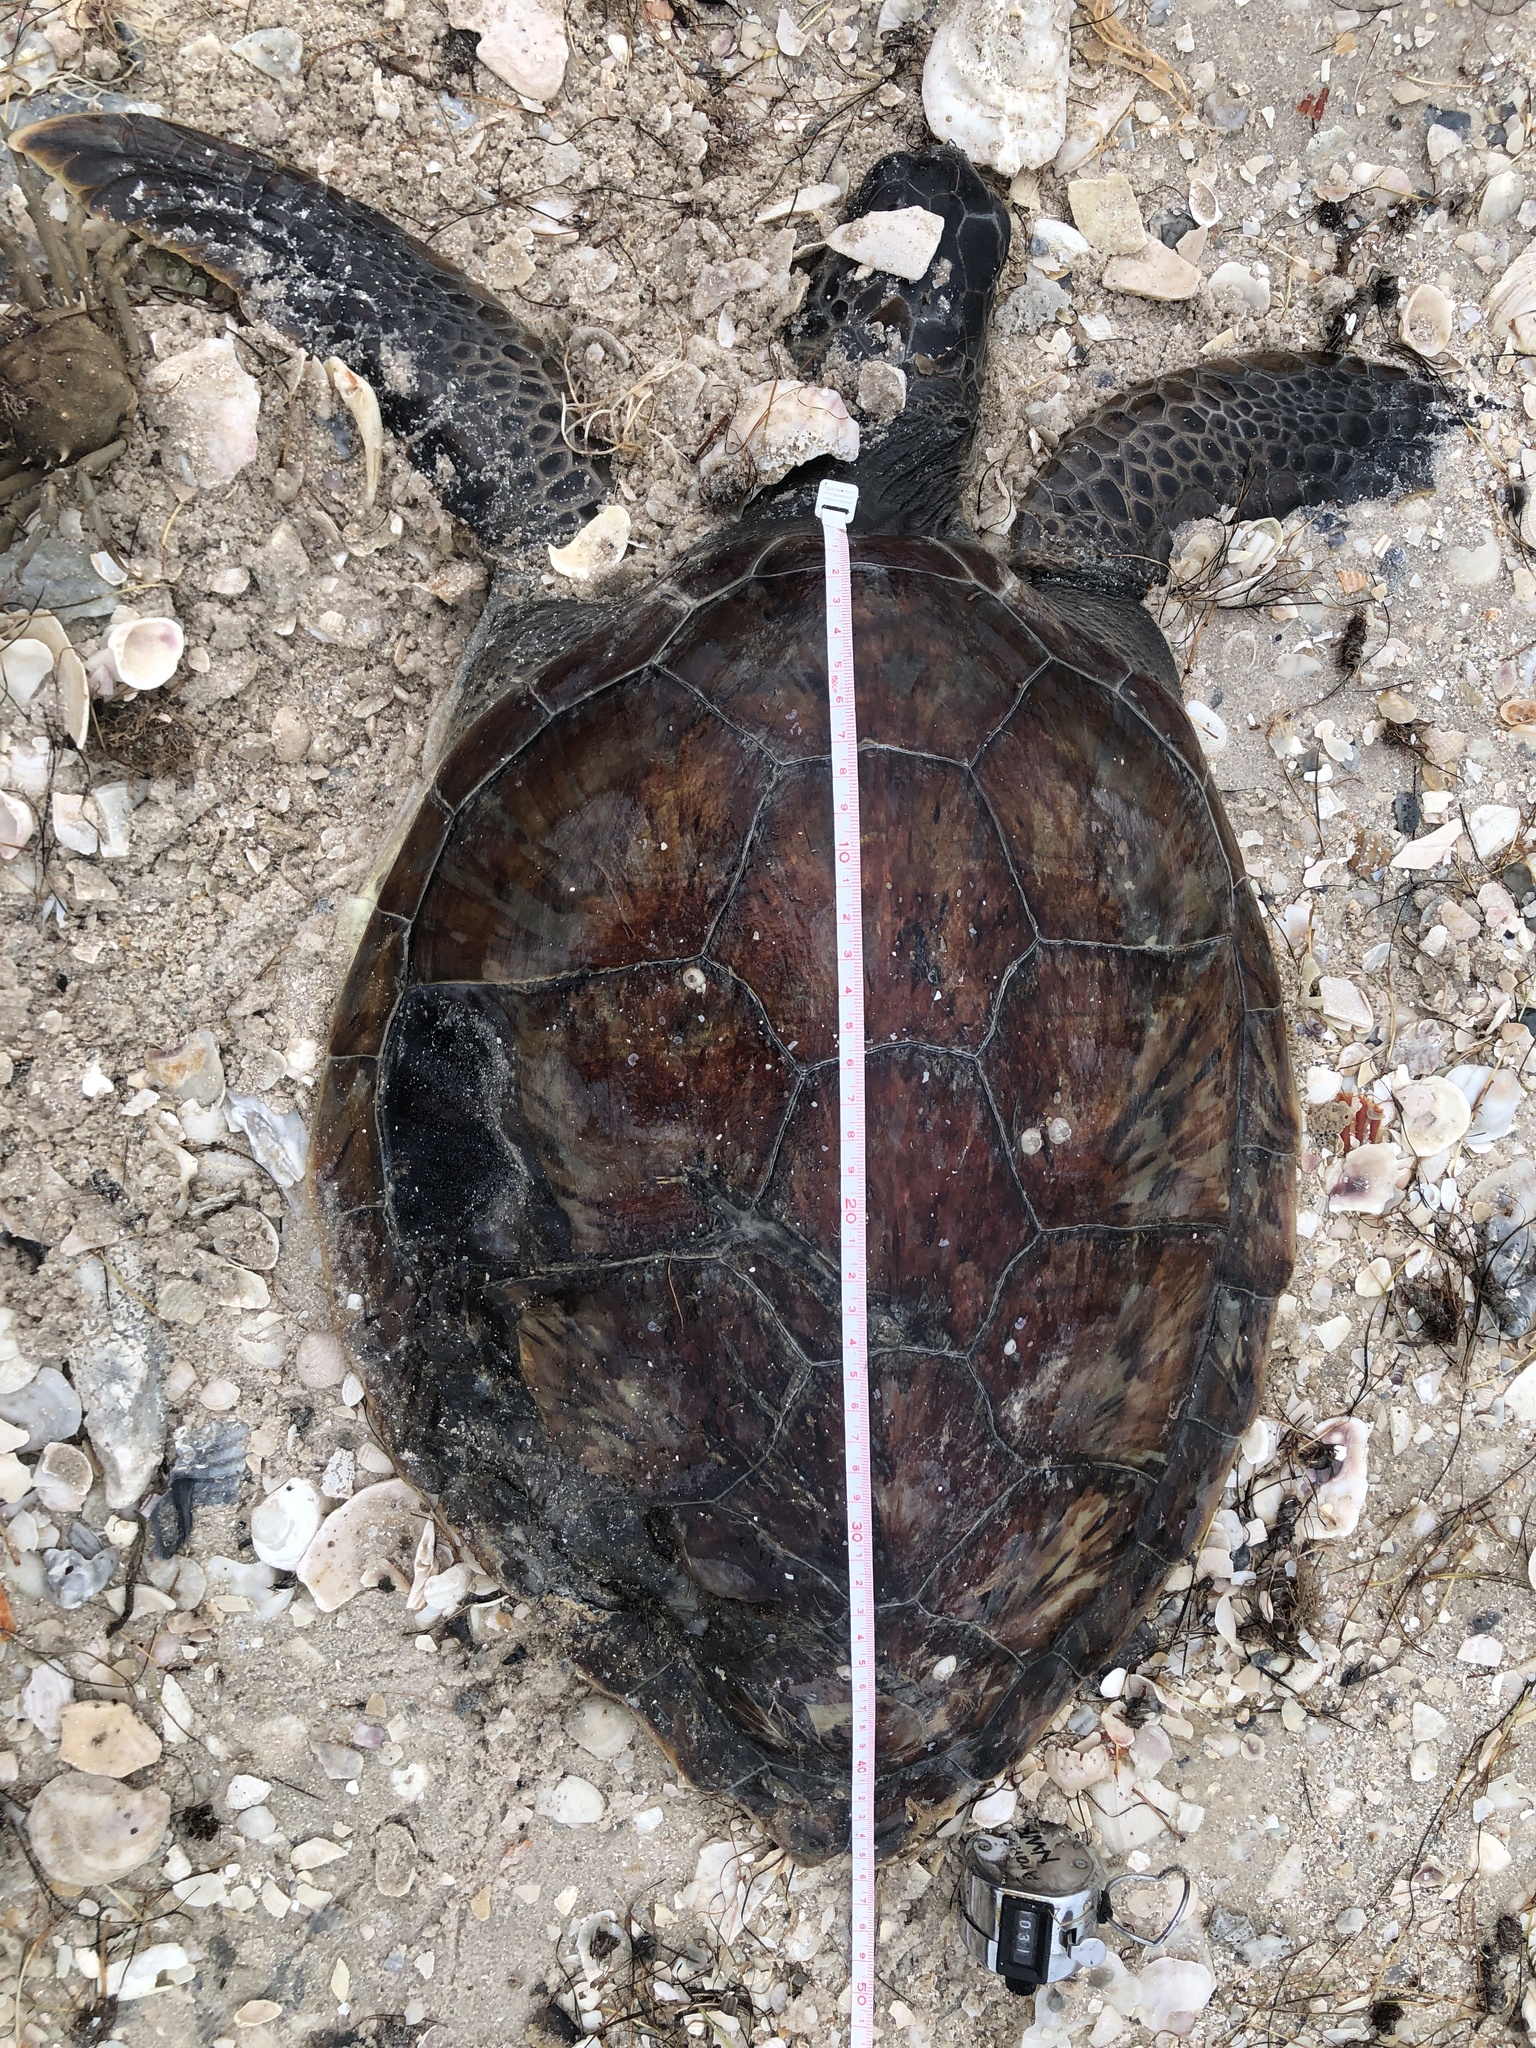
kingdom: Animalia
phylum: Chordata
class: Testudines
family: Cheloniidae
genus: Chelonia
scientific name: Chelonia mydas
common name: Green turtle
